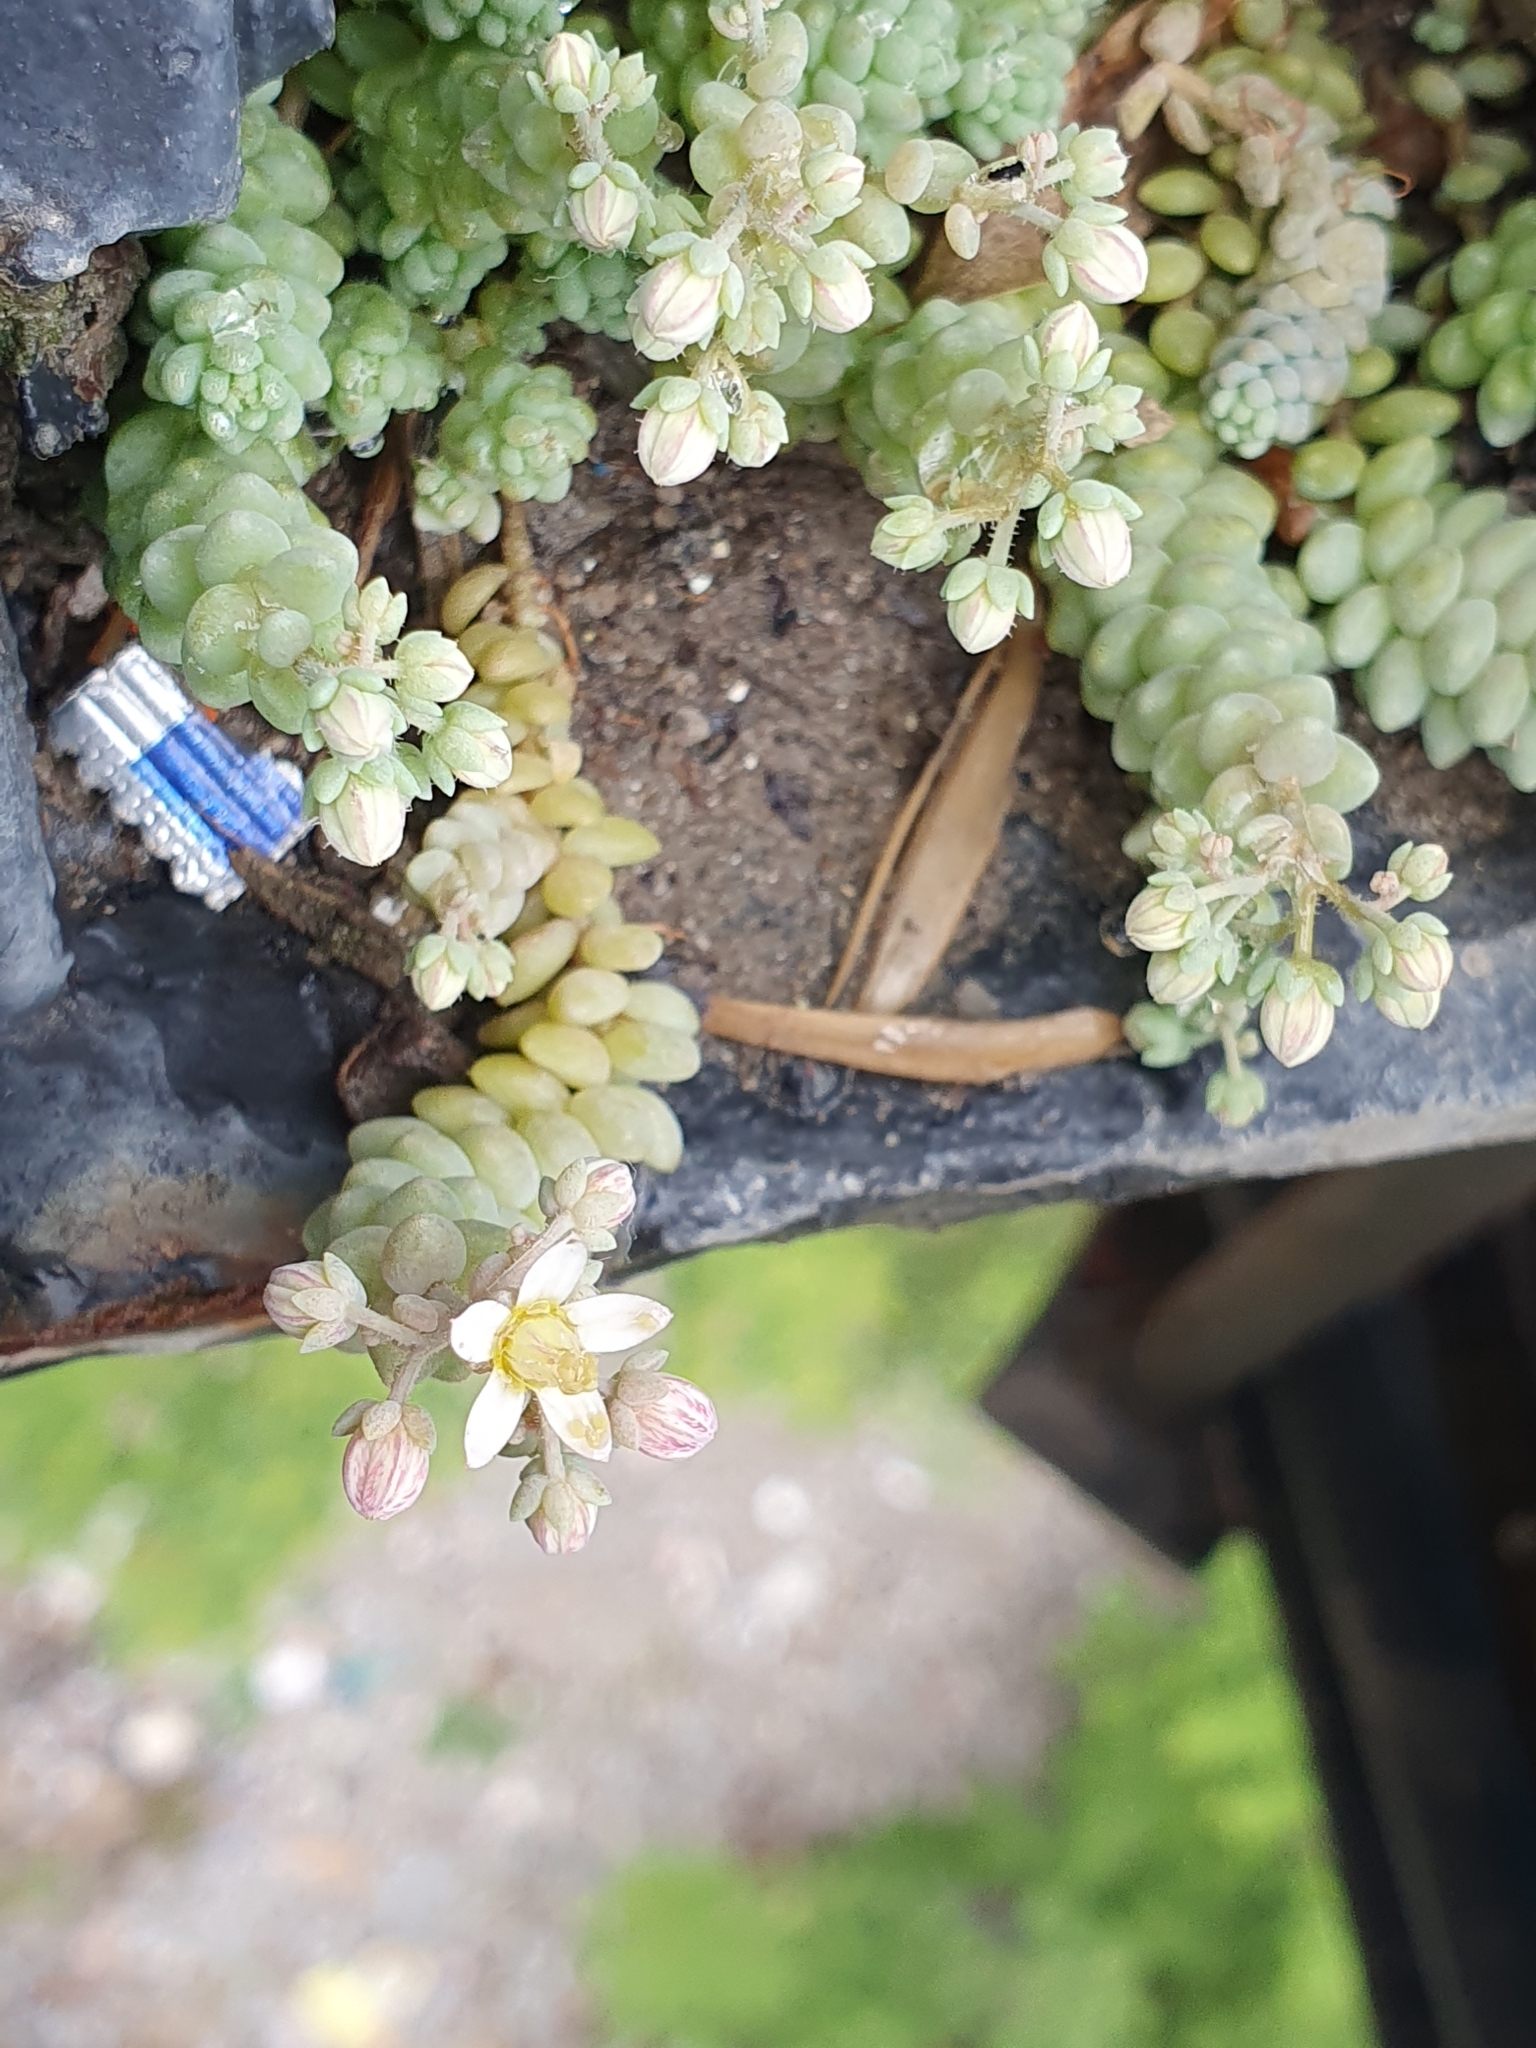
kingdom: Plantae
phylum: Tracheophyta
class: Magnoliopsida
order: Saxifragales
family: Crassulaceae
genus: Sedum
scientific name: Sedum dasyphyllum
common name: Thick-leaf stonecrop
